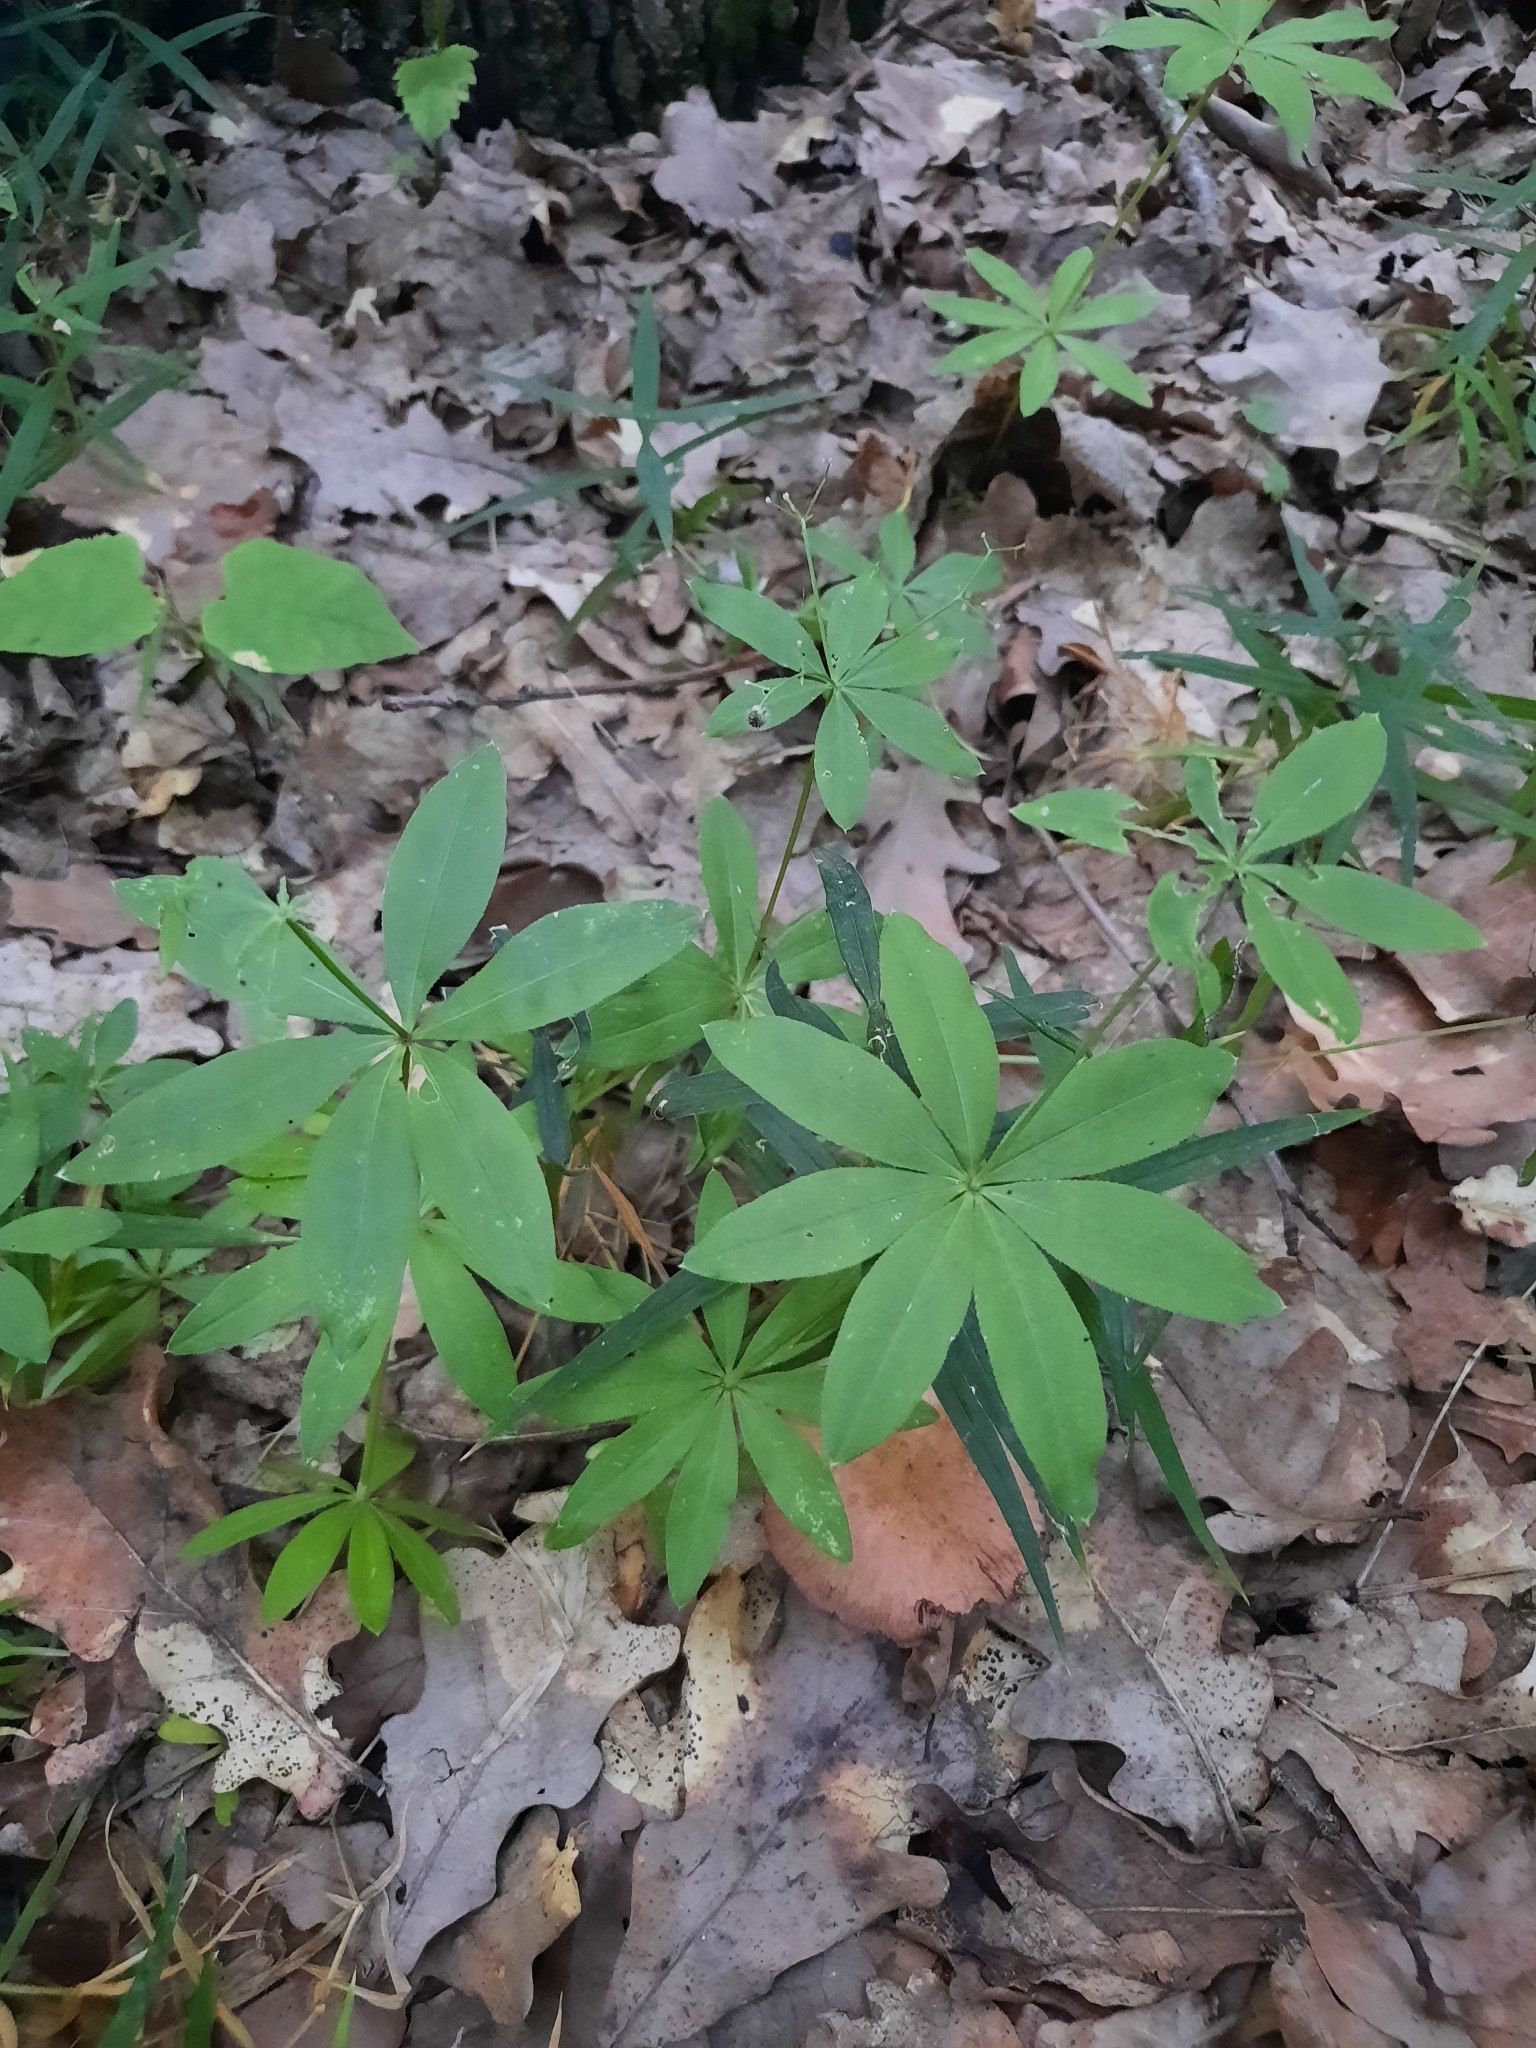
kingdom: Plantae
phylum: Tracheophyta
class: Magnoliopsida
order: Gentianales
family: Rubiaceae
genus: Galium
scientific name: Galium odoratum
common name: Sweet woodruff
